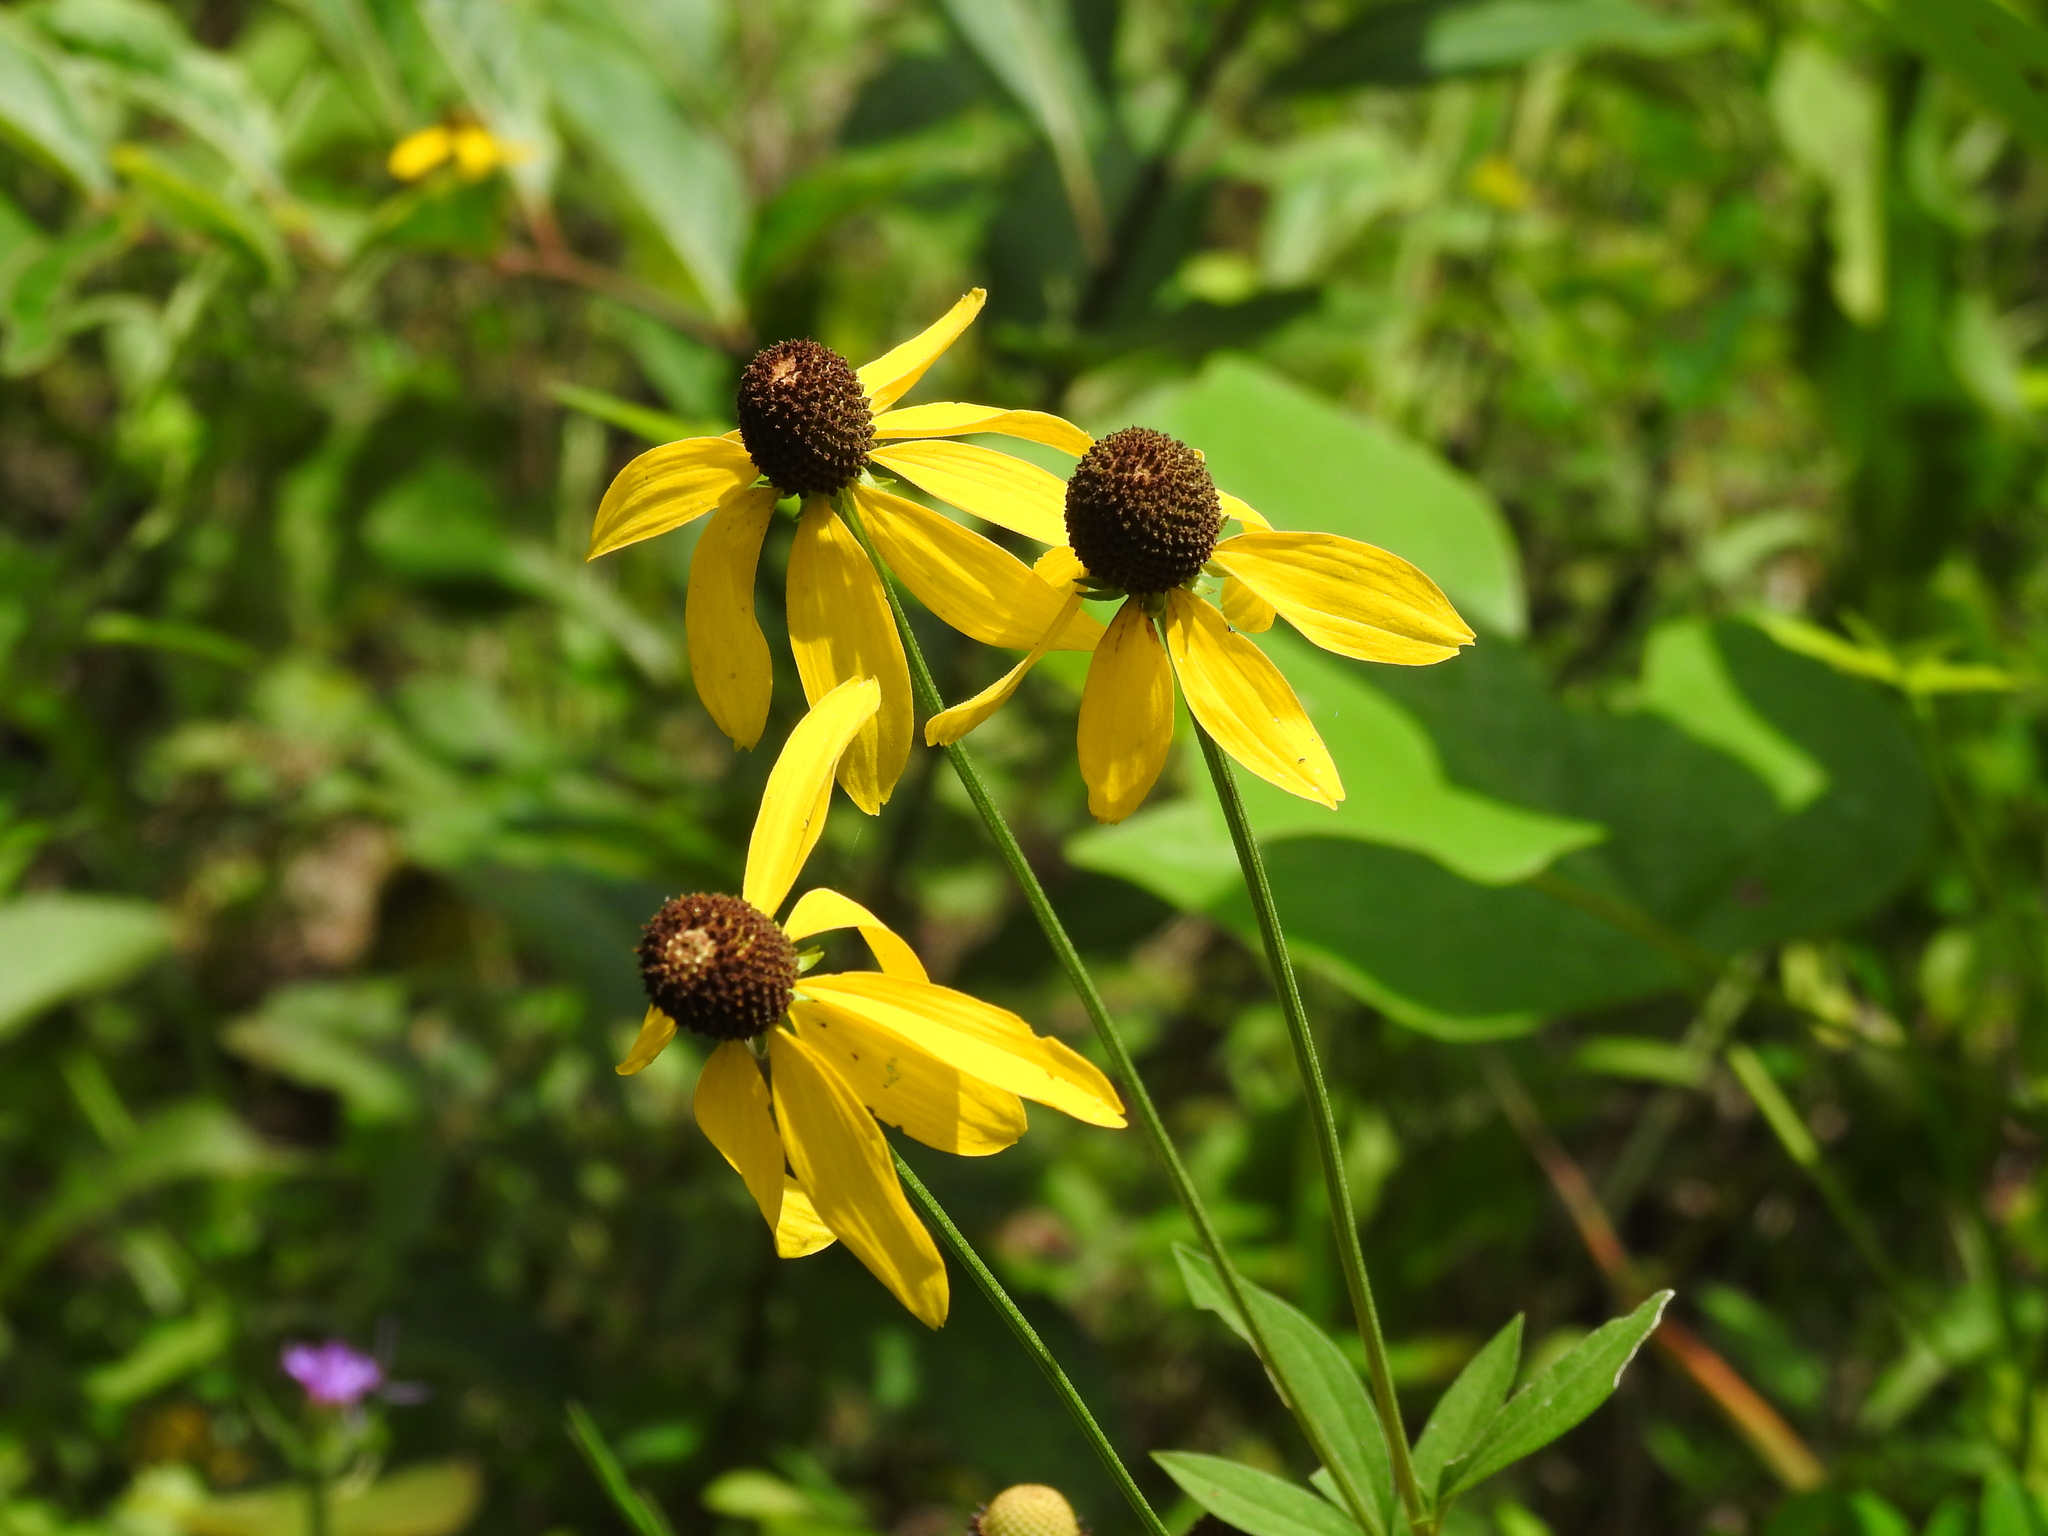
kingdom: Plantae
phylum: Tracheophyta
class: Magnoliopsida
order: Asterales
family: Asteraceae
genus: Ratibida
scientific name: Ratibida pinnata
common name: Drooping prairie-coneflower
